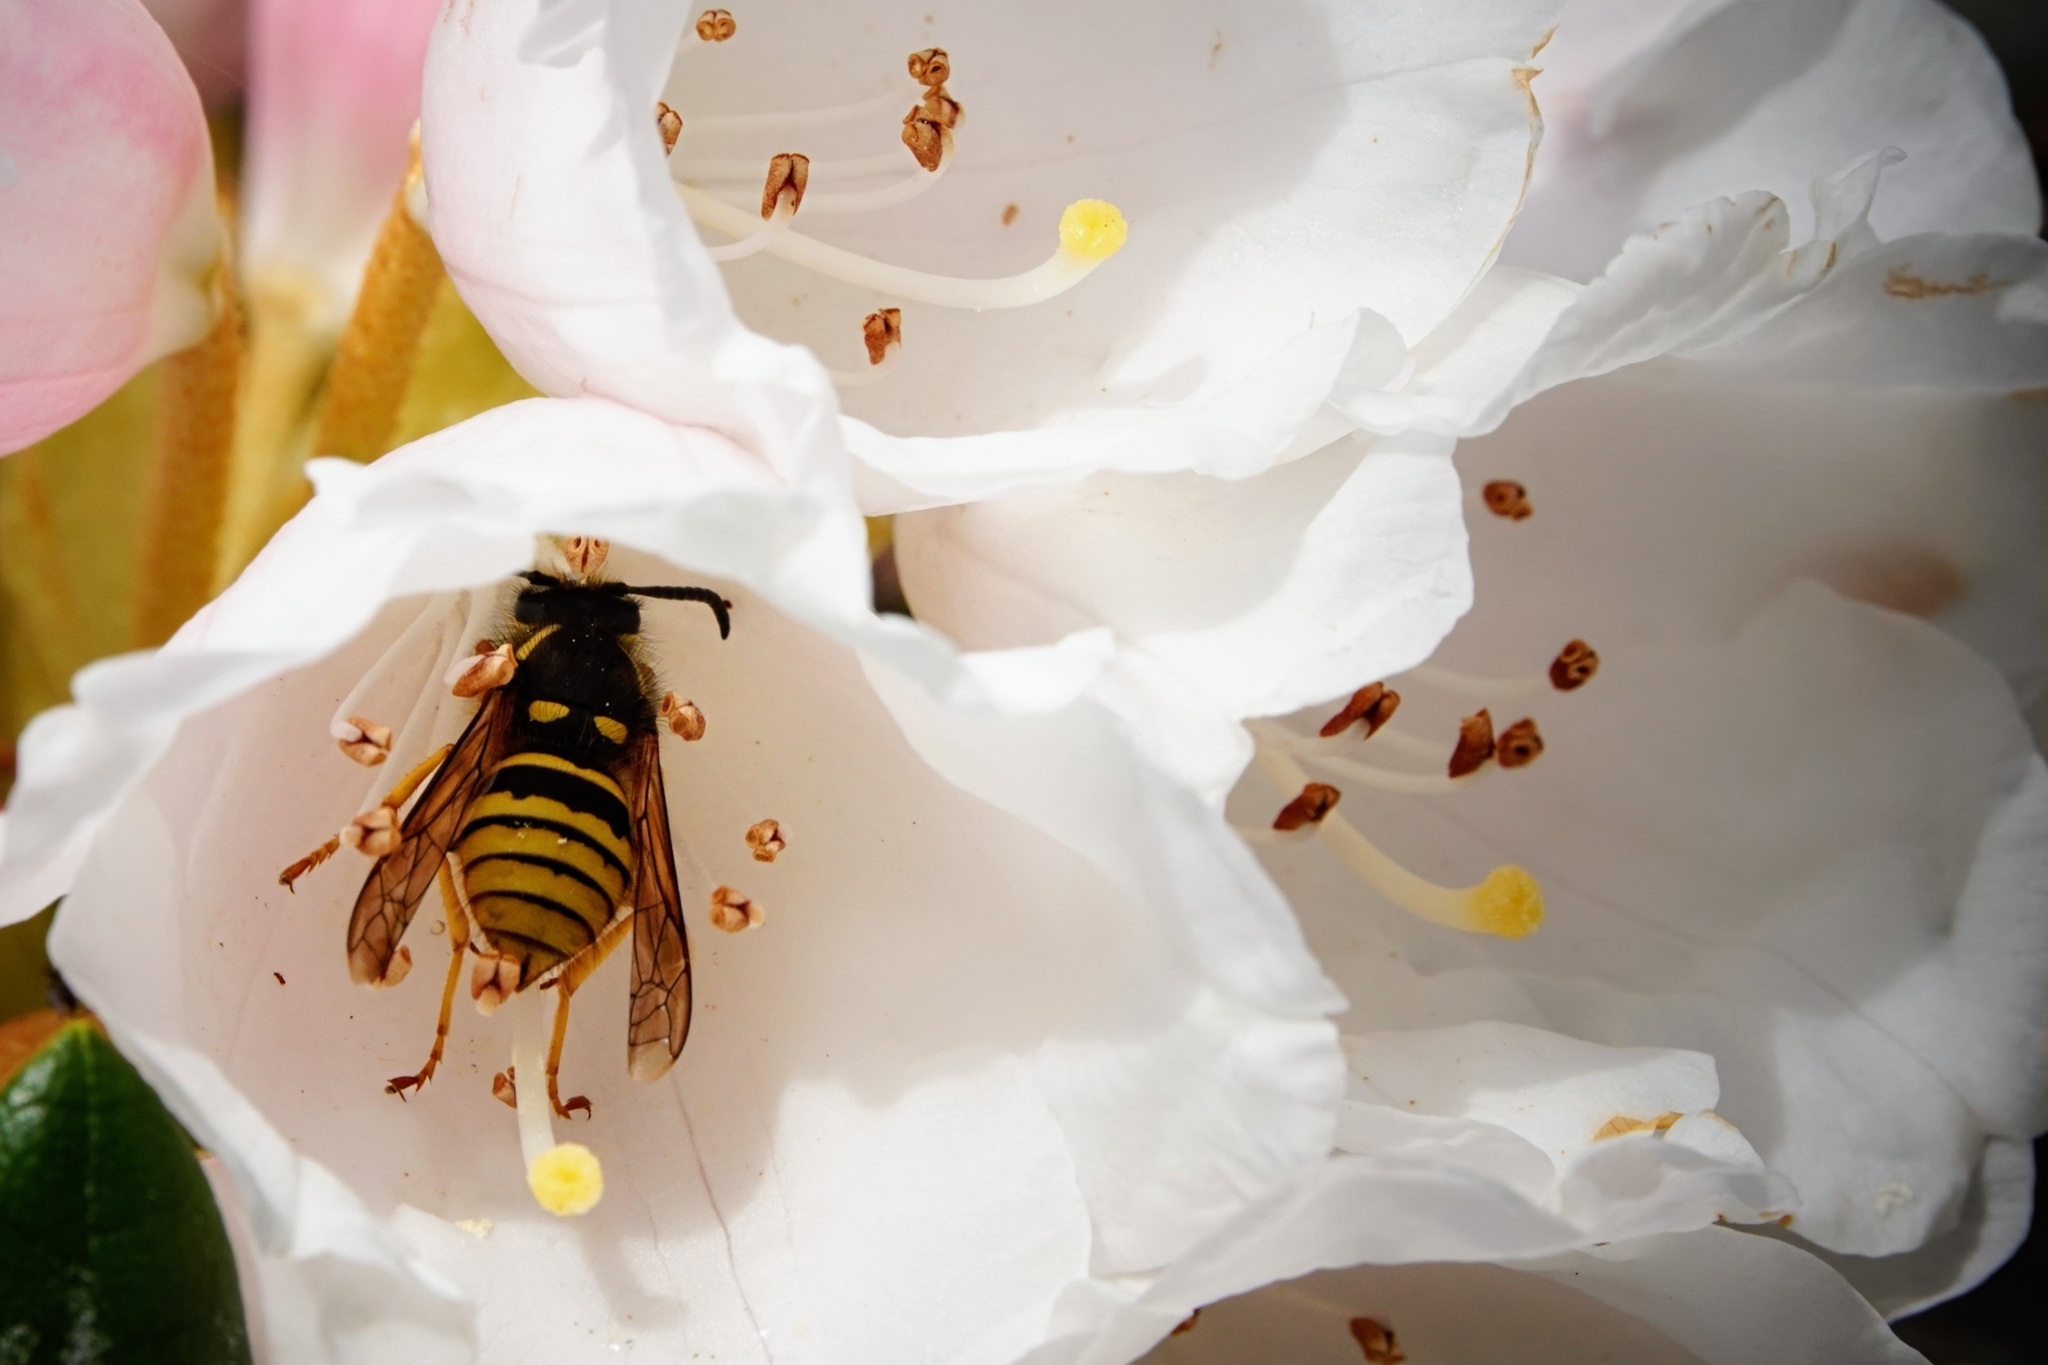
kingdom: Animalia
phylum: Arthropoda
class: Insecta
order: Hymenoptera
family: Vespidae
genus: Dolichovespula
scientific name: Dolichovespula sylvestris
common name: Tree wasp
